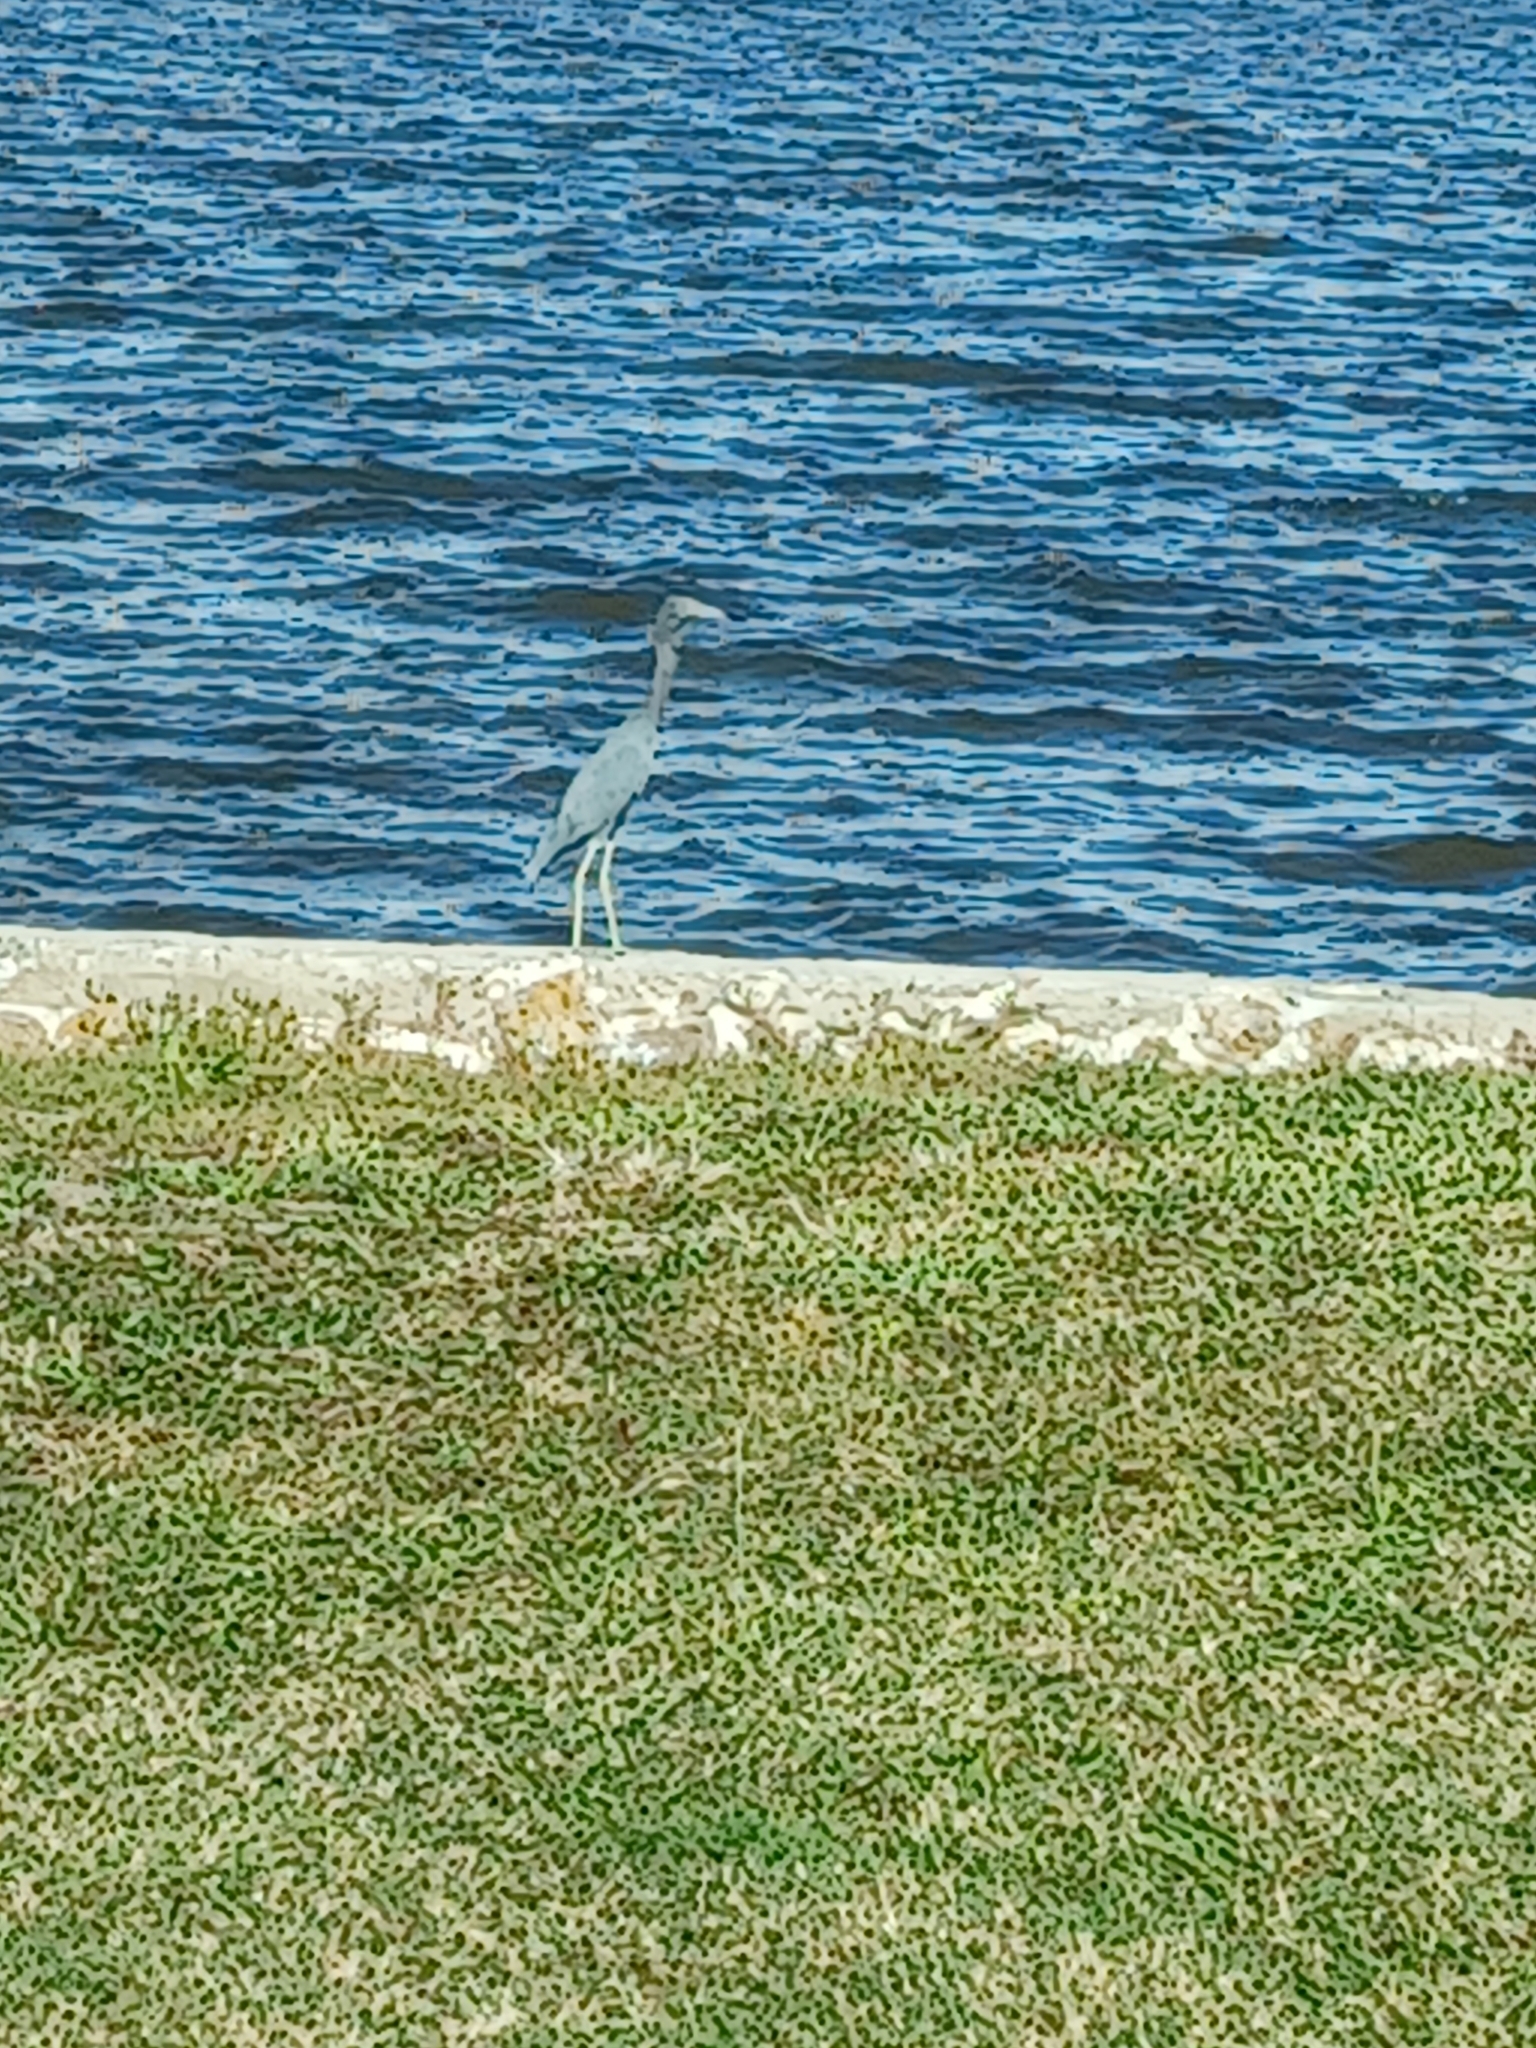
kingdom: Animalia
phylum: Chordata
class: Aves
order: Pelecaniformes
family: Ardeidae
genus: Egretta
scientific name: Egretta caerulea
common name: Little blue heron
